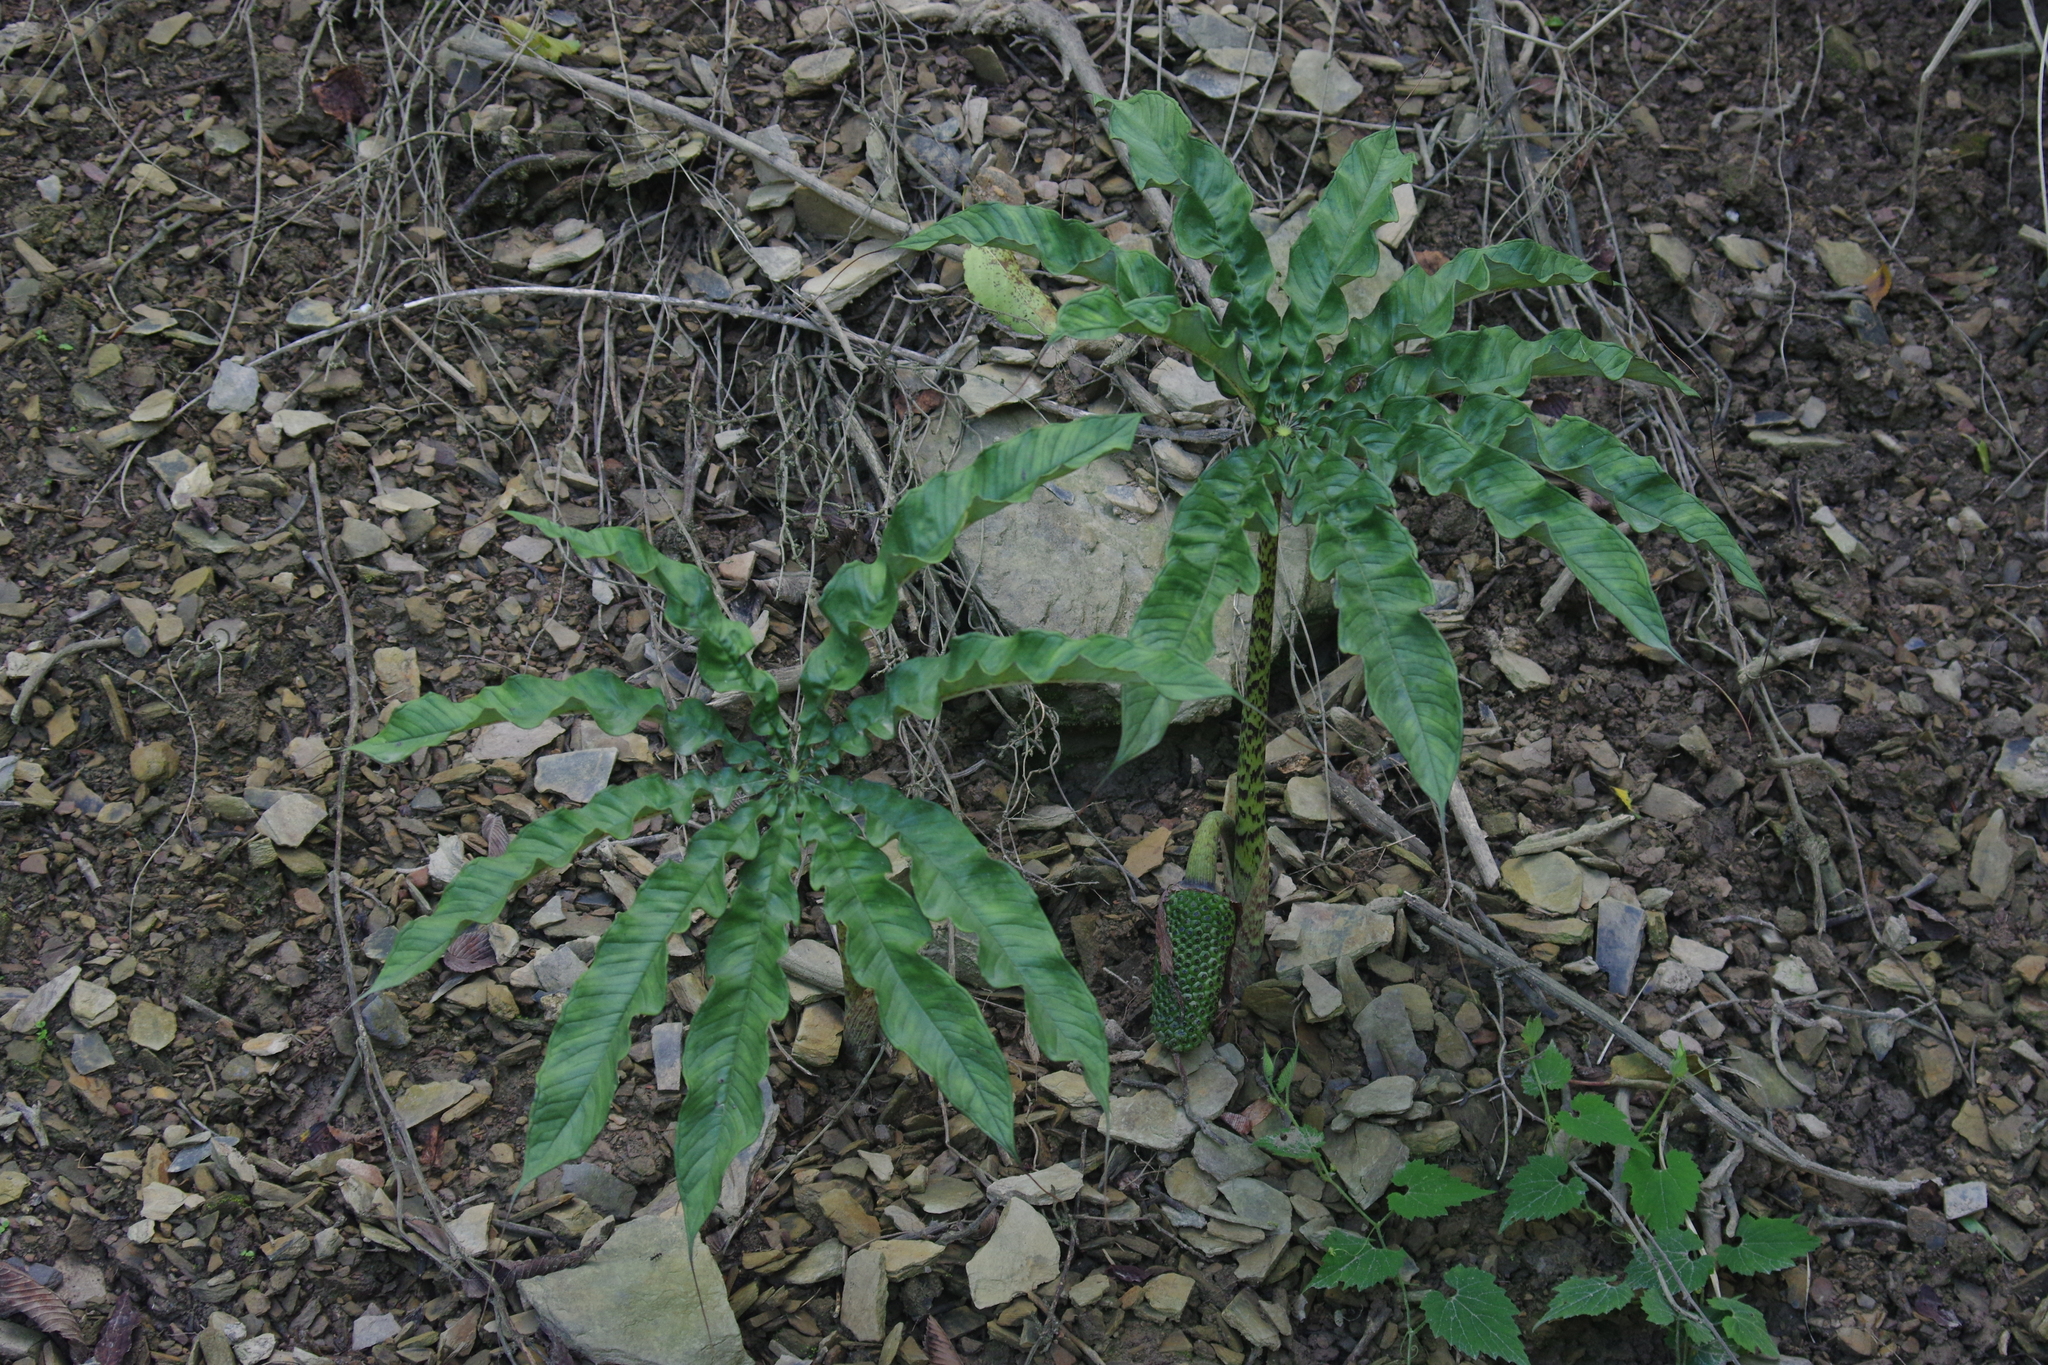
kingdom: Plantae
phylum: Tracheophyta
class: Liliopsida
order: Alismatales
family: Araceae
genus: Arisaema
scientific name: Arisaema taiwanense
